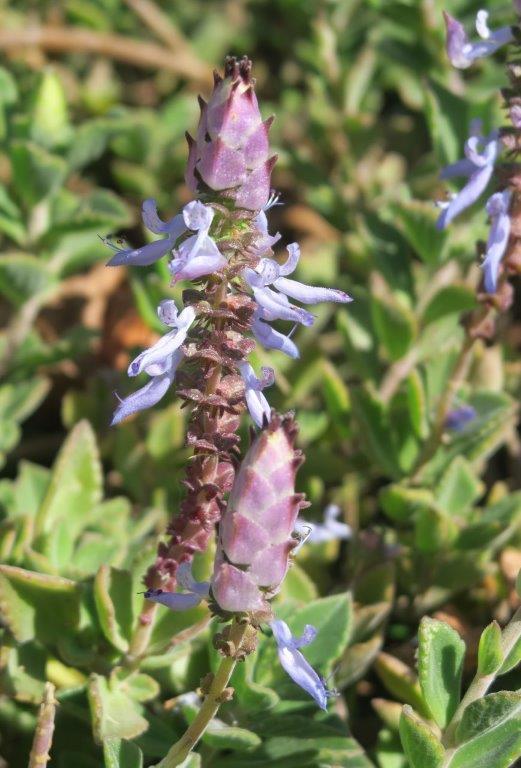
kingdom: Plantae
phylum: Tracheophyta
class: Magnoliopsida
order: Lamiales
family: Lamiaceae
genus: Coleus
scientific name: Coleus neochilus
